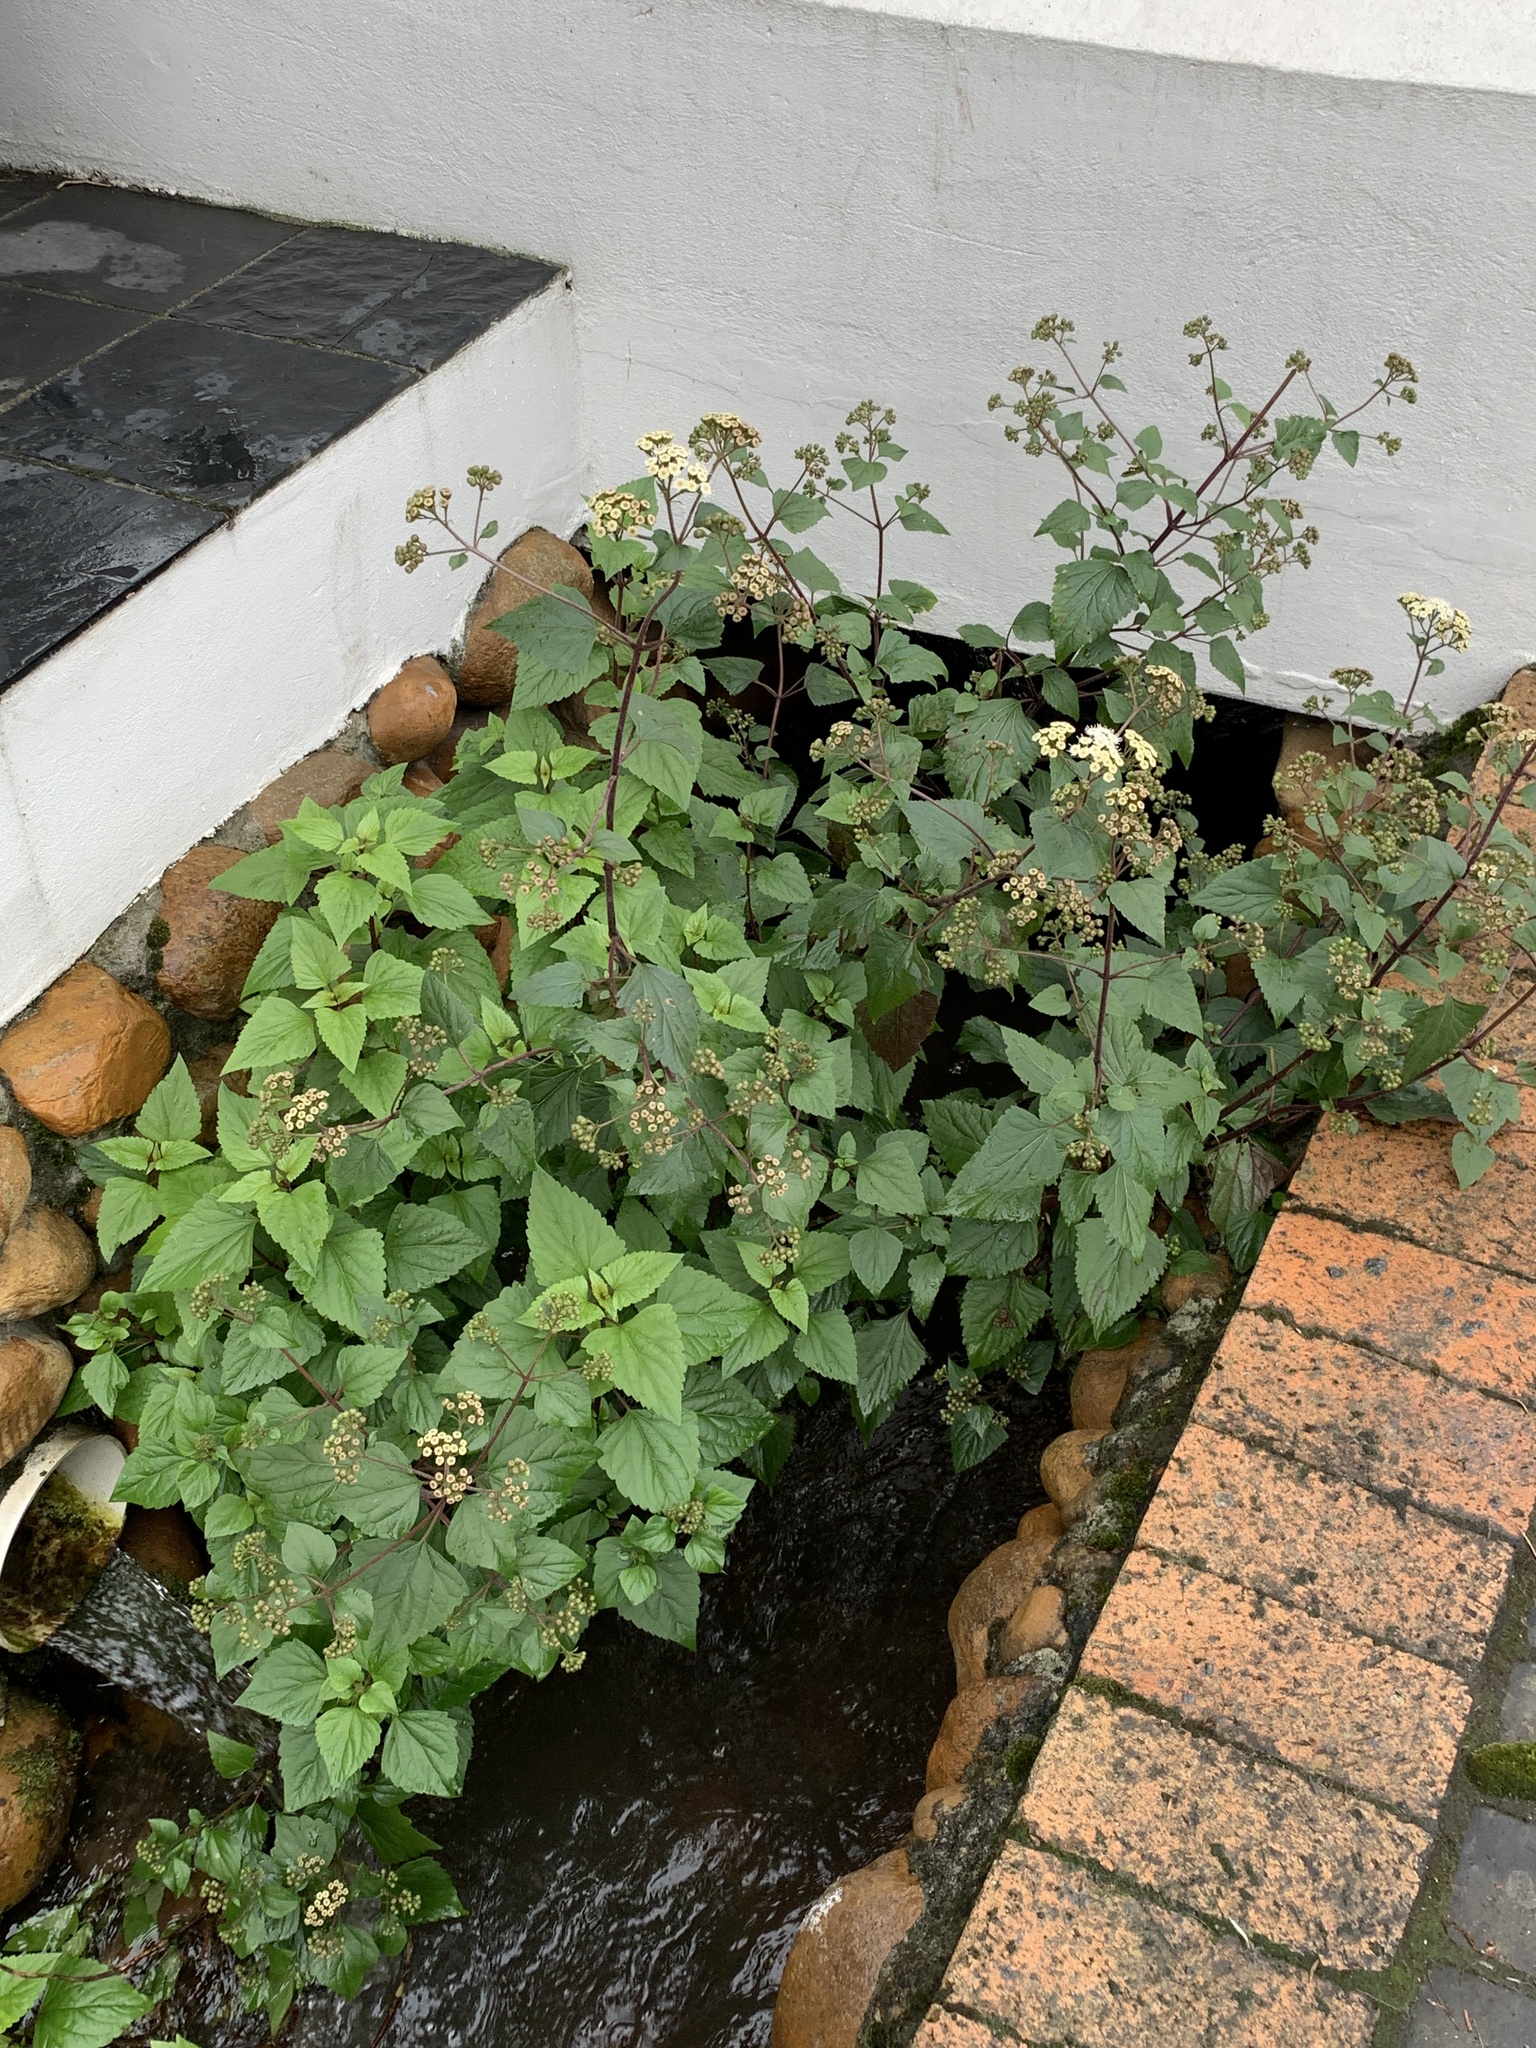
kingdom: Plantae
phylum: Tracheophyta
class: Magnoliopsida
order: Asterales
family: Asteraceae
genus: Ageratina
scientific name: Ageratina adenophora
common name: Sticky snakeroot
